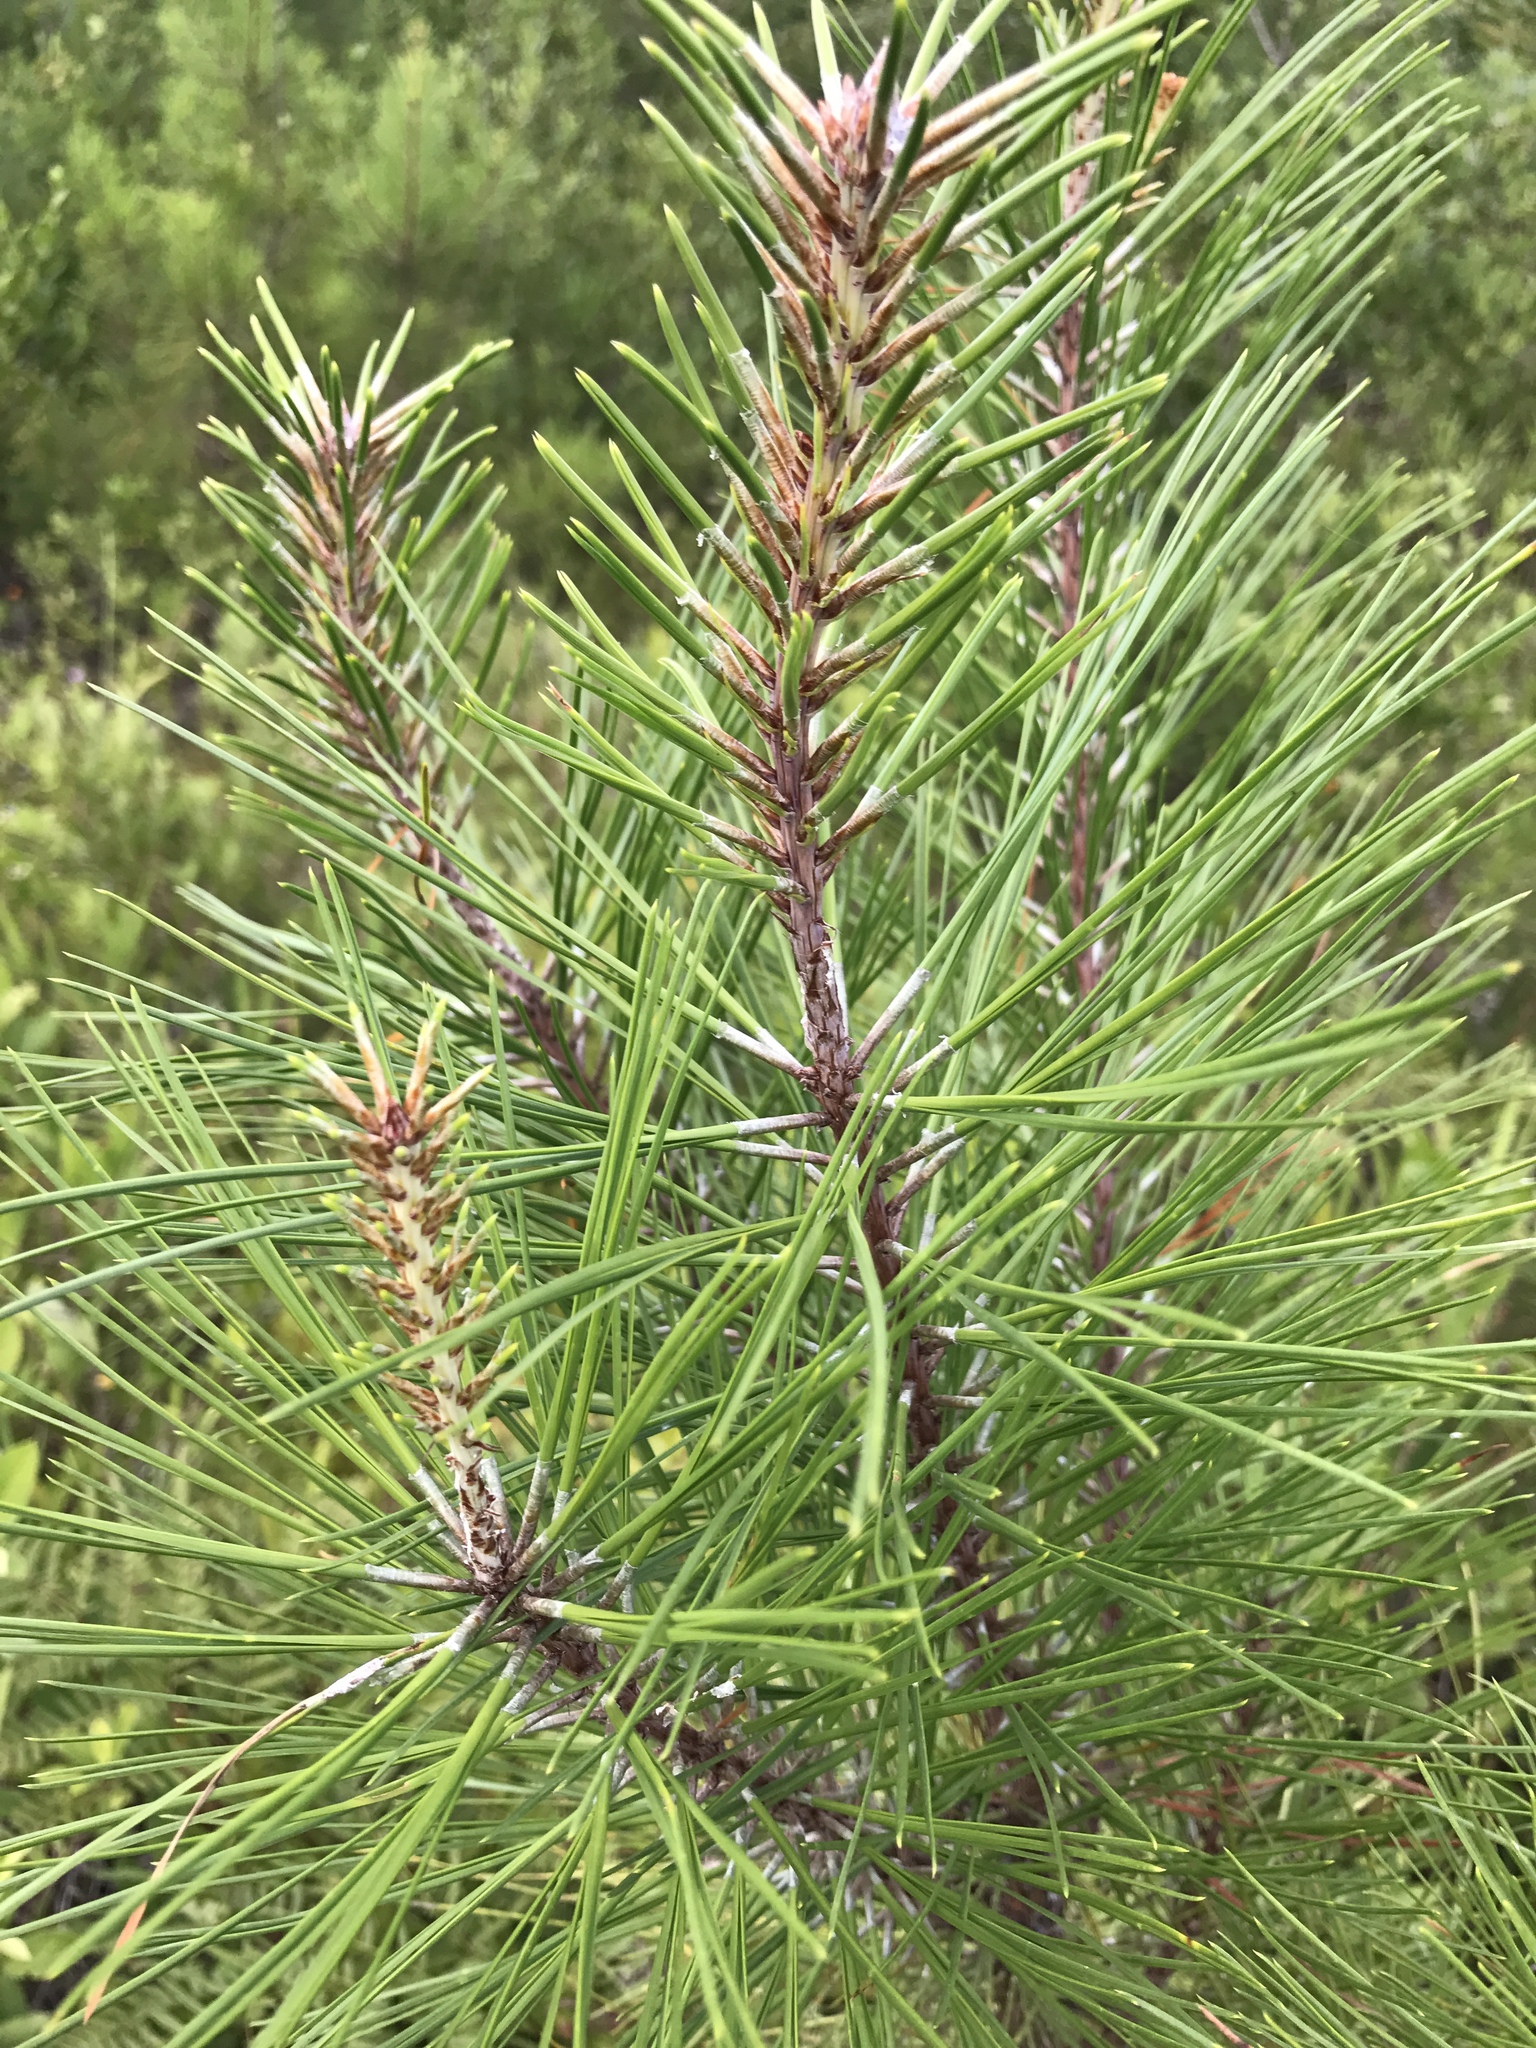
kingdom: Plantae
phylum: Tracheophyta
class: Pinopsida
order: Pinales
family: Pinaceae
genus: Pinus
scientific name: Pinus serotina
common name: Marsh pine
